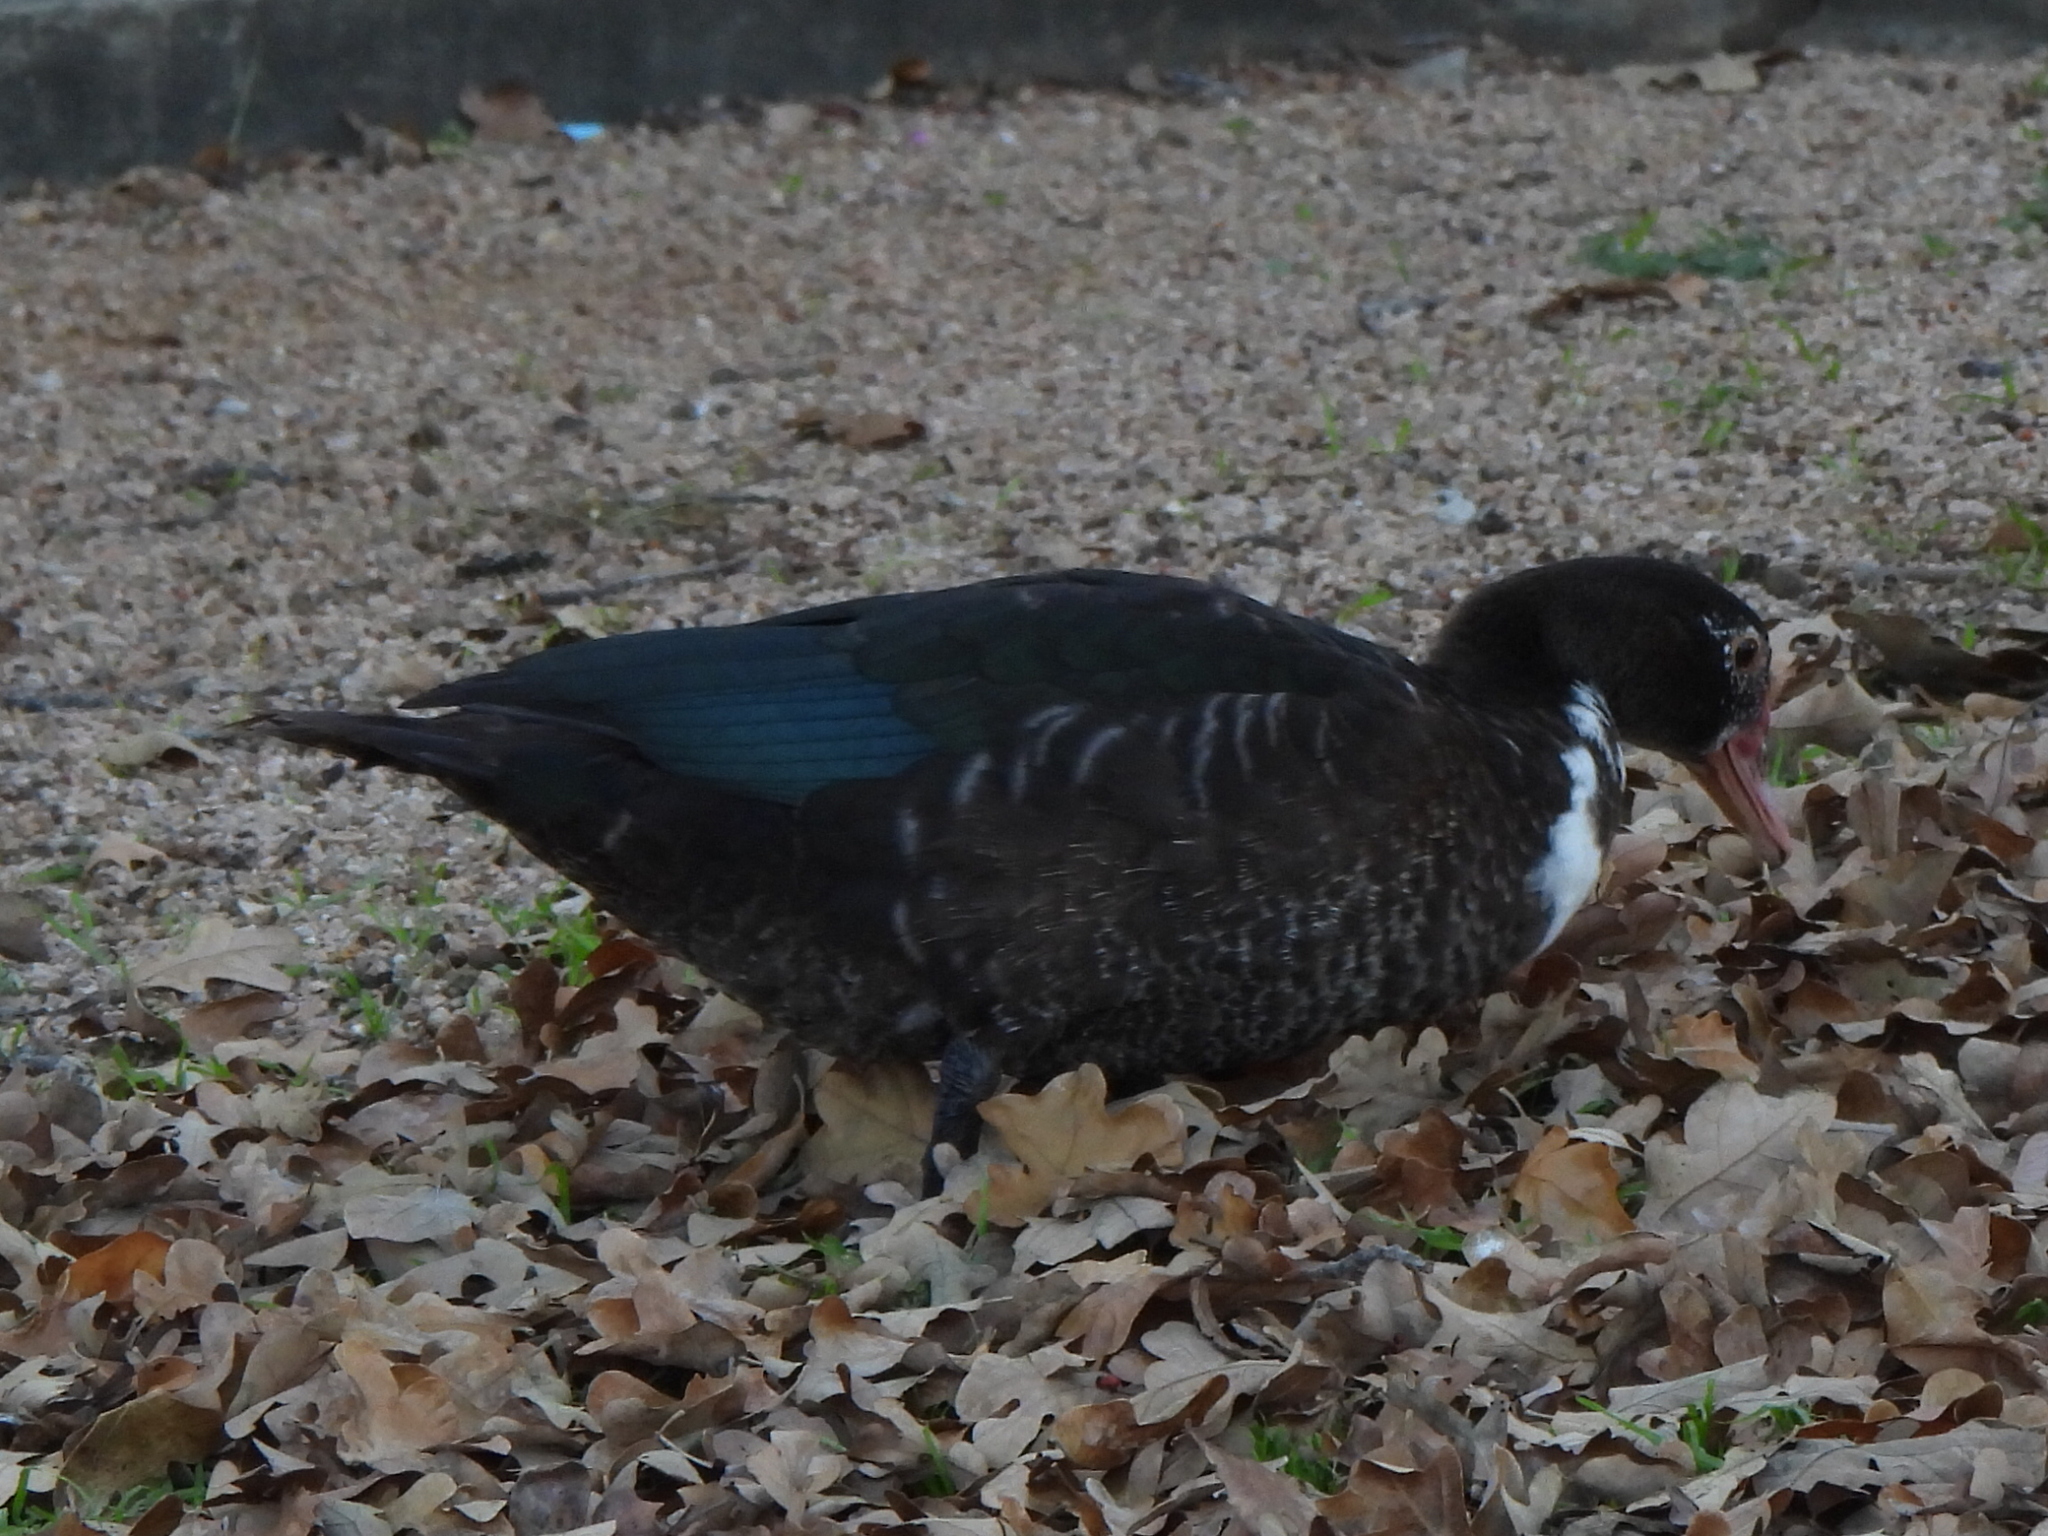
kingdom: Animalia
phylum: Chordata
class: Aves
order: Anseriformes
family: Anatidae
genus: Cairina
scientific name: Cairina moschata
